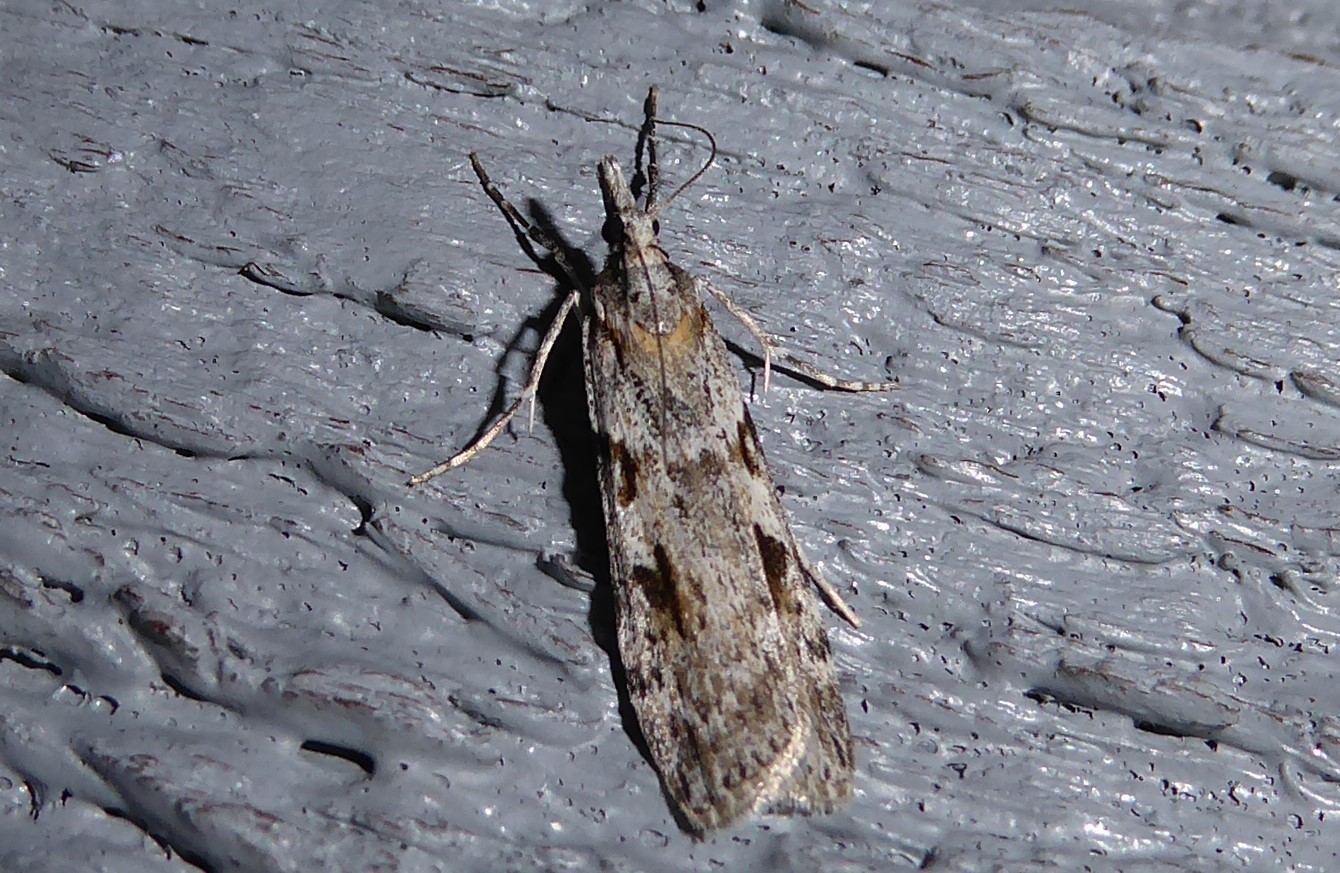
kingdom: Animalia
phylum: Arthropoda
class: Insecta
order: Lepidoptera
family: Crambidae
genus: Scoparia
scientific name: Scoparia halopis
